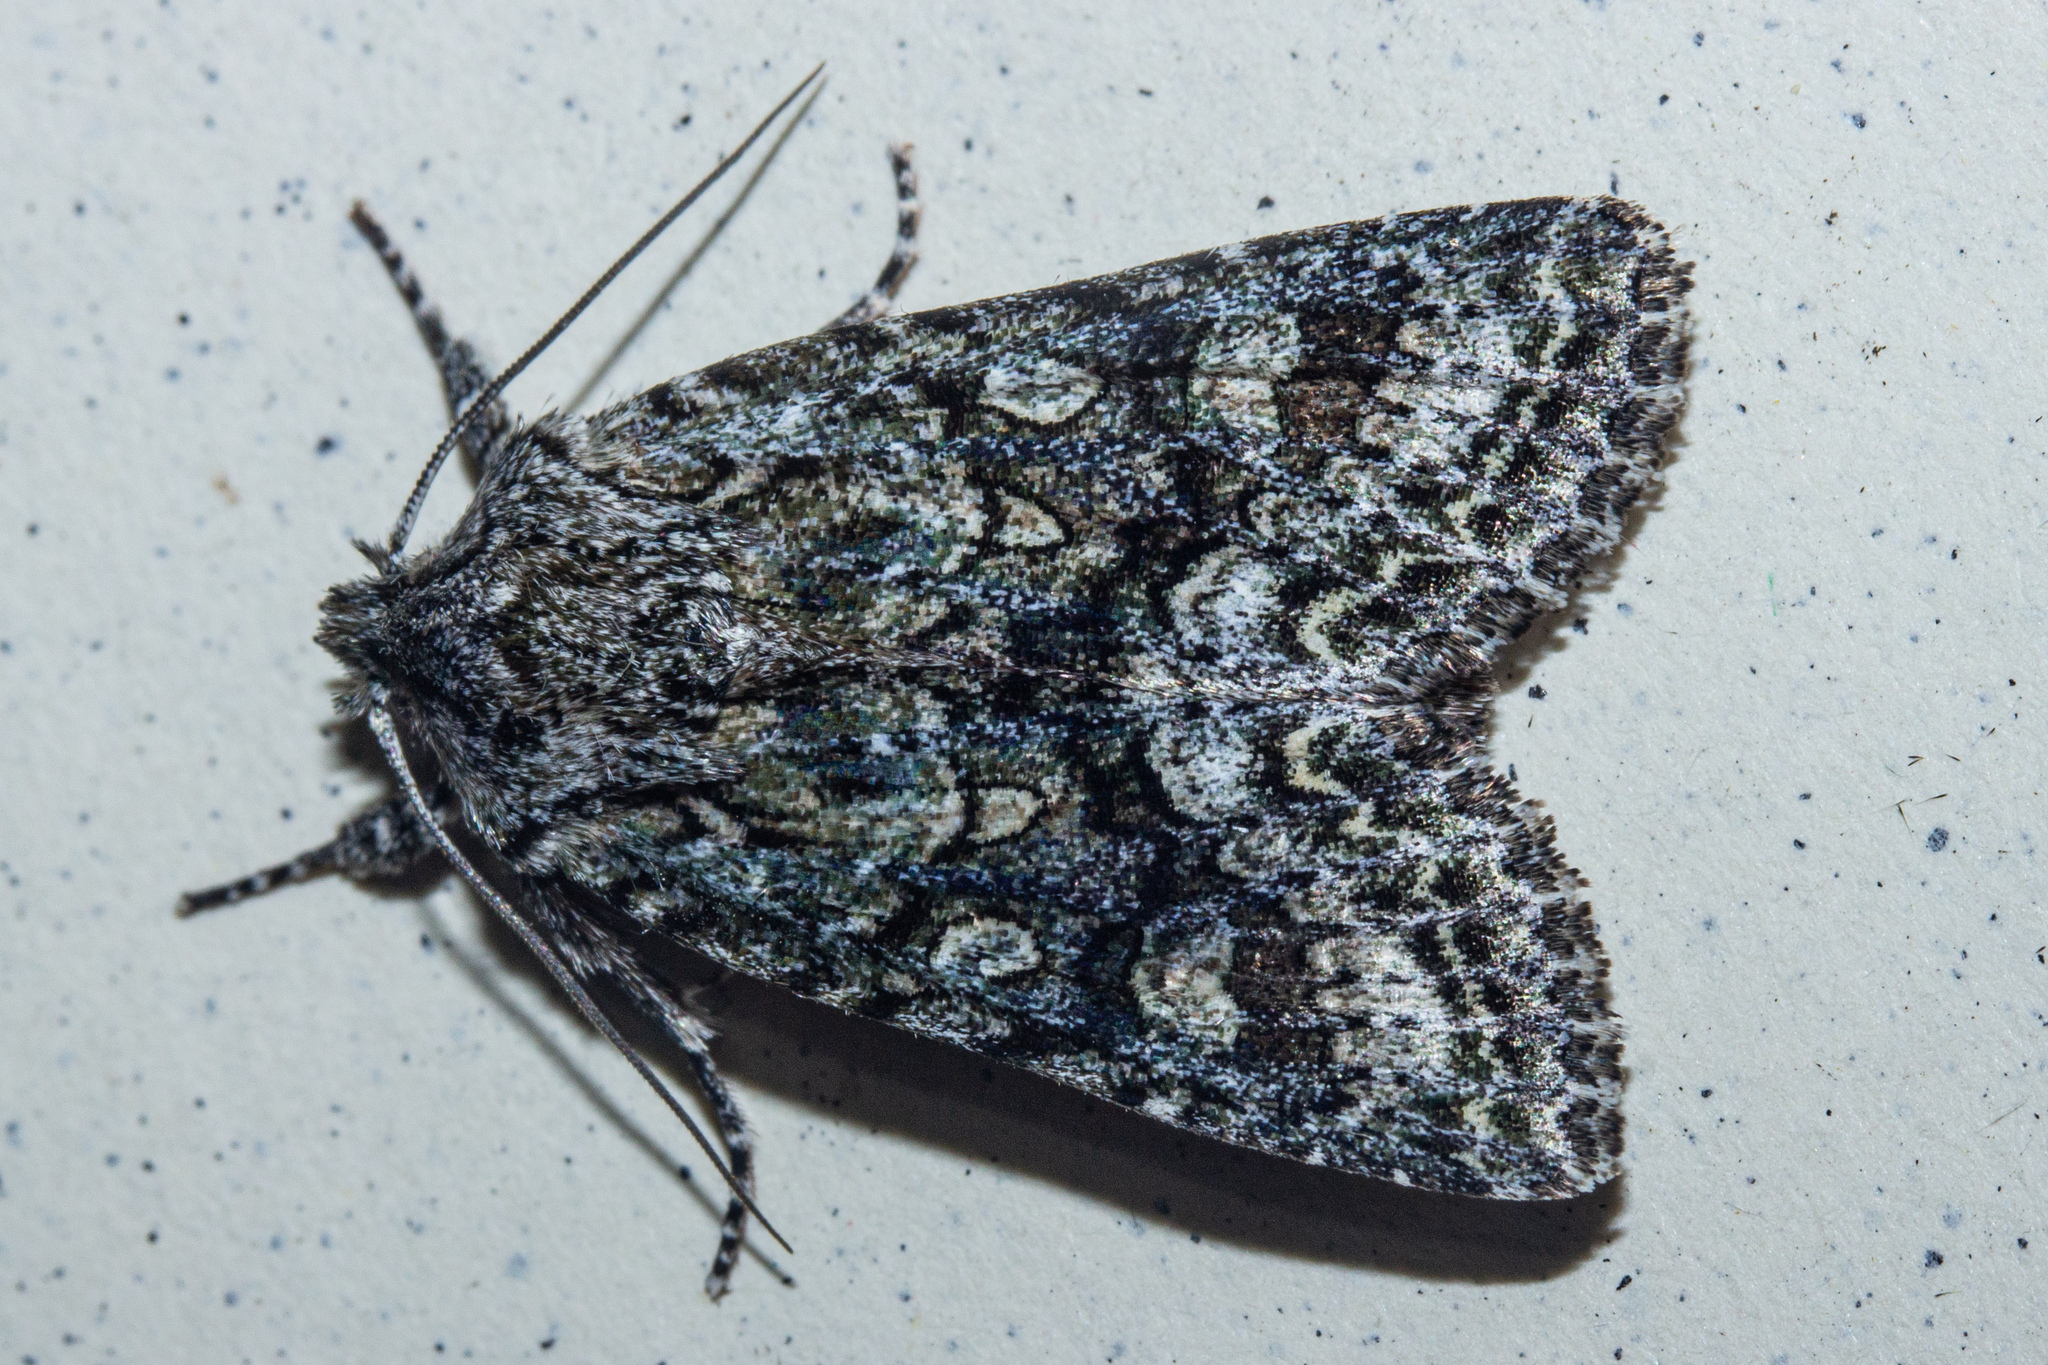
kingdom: Animalia
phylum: Arthropoda
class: Insecta
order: Lepidoptera
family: Noctuidae
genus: Ichneutica
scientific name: Ichneutica
